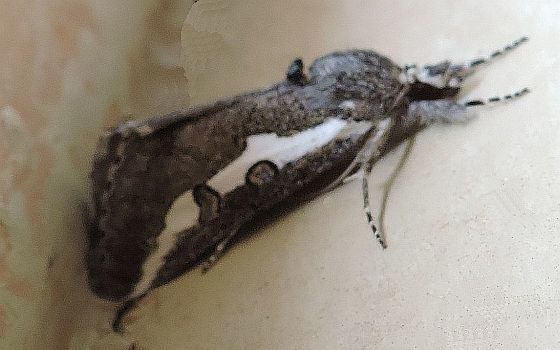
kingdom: Animalia
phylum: Arthropoda
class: Insecta
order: Lepidoptera
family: Noctuidae
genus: Euscirrhopterus
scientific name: Euscirrhopterus gloveri
